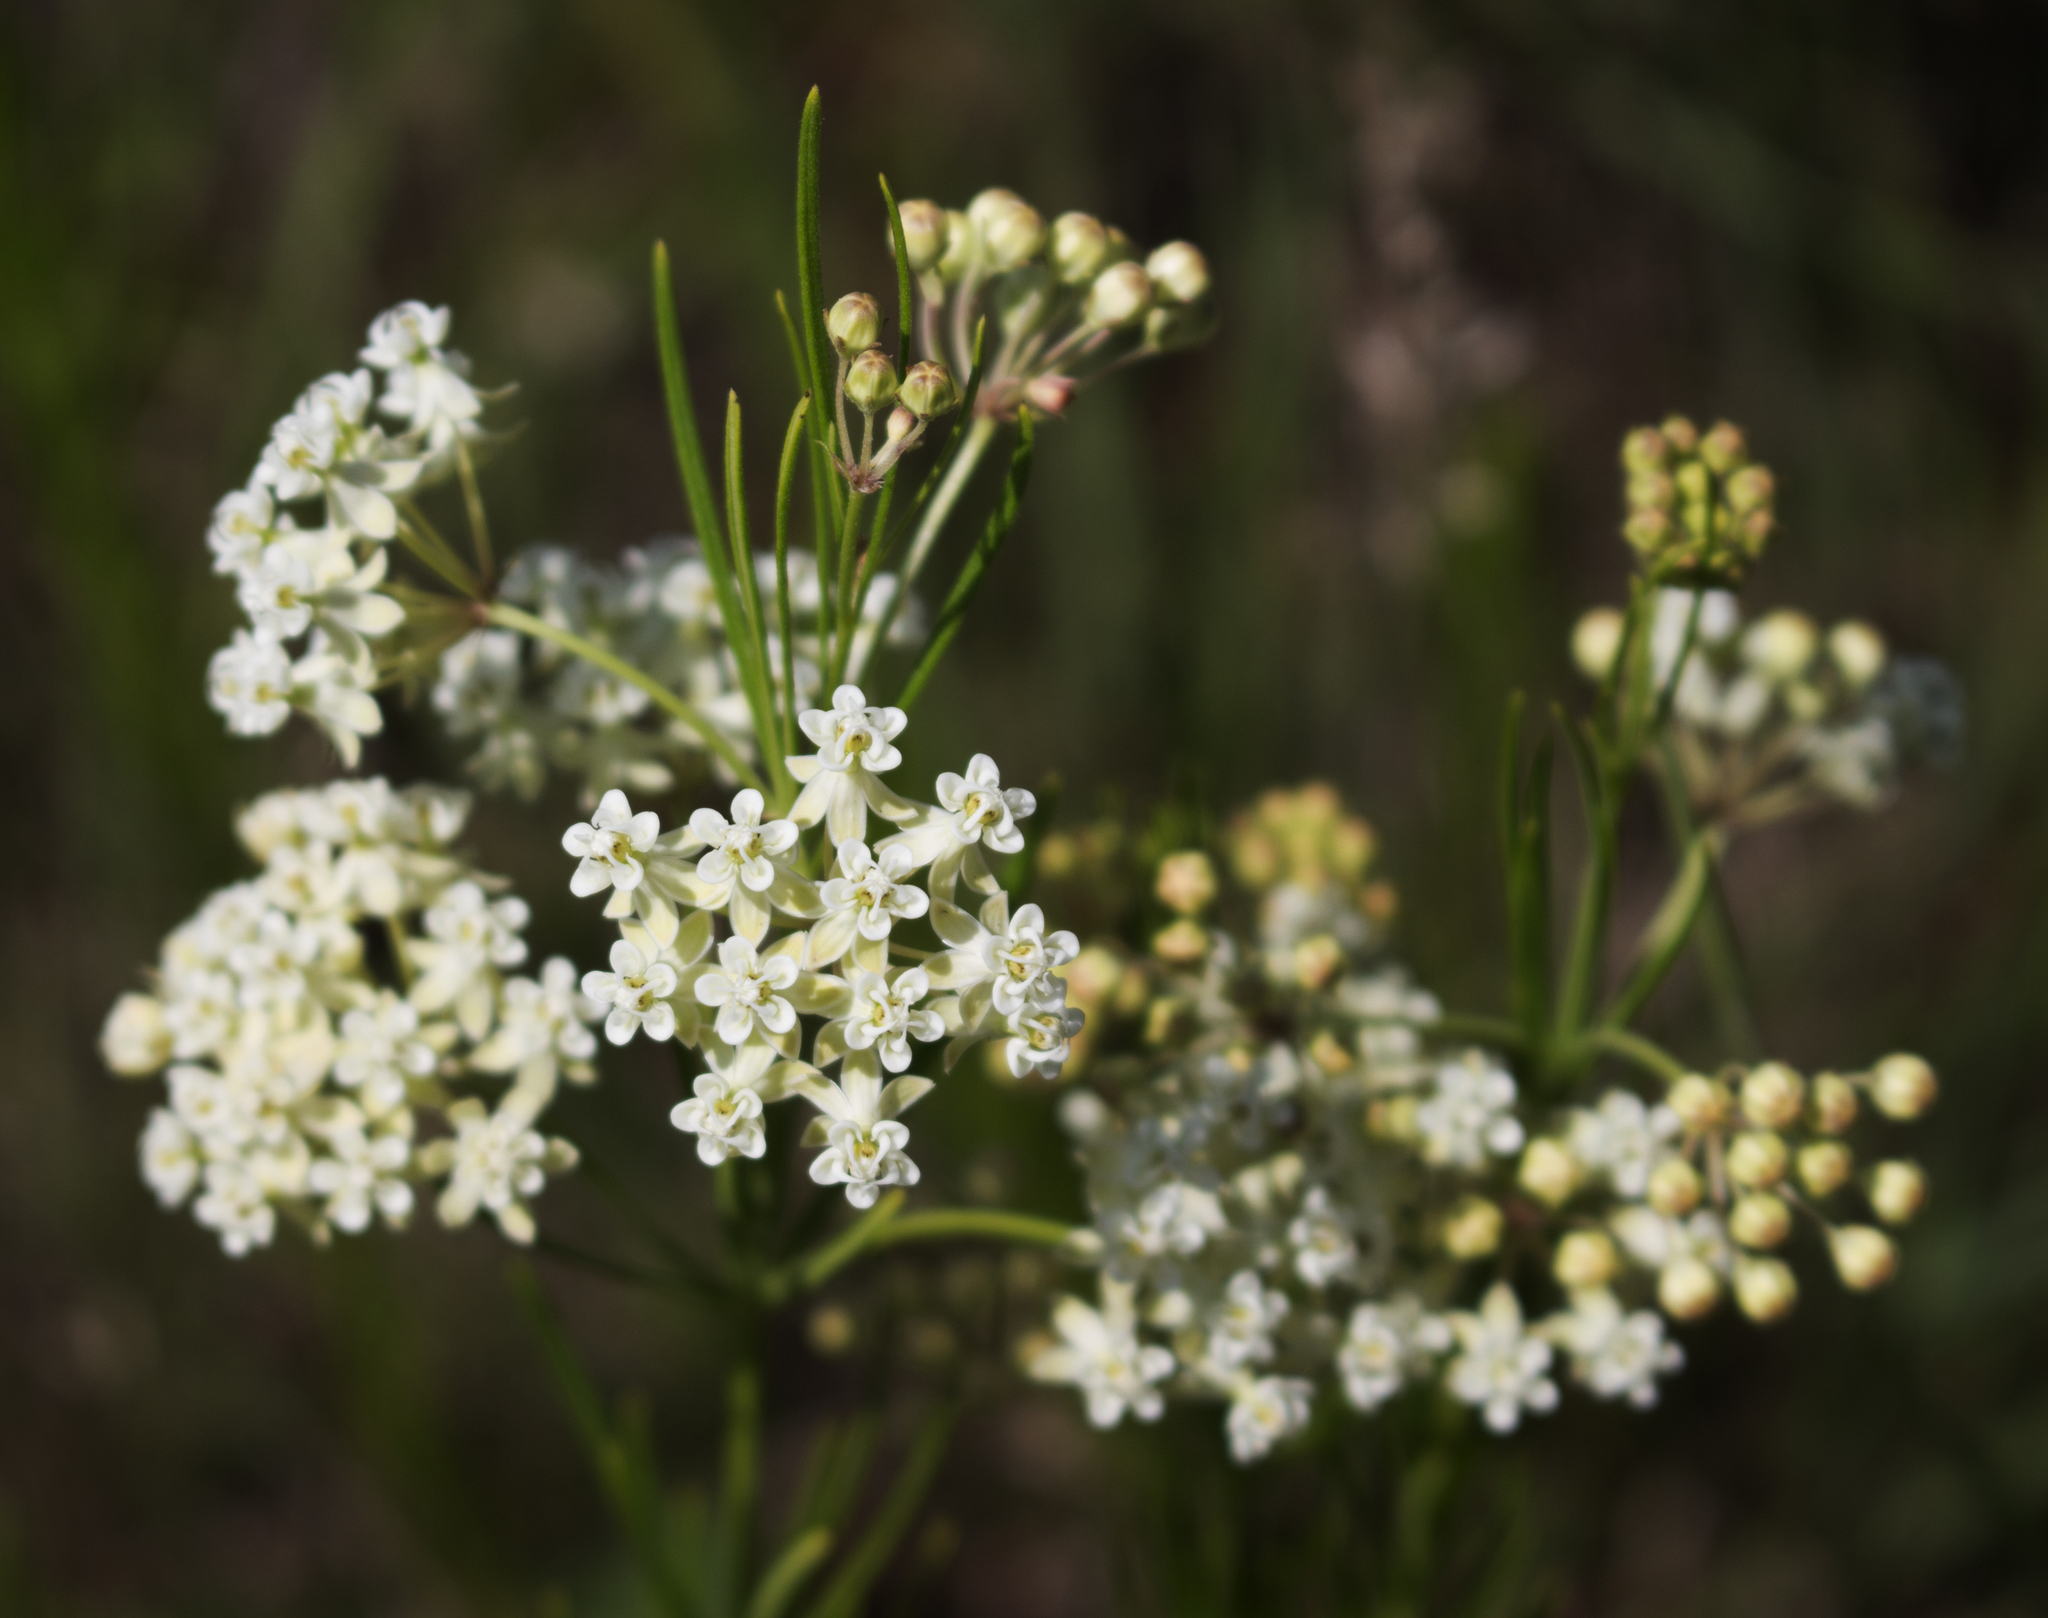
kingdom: Plantae
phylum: Tracheophyta
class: Magnoliopsida
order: Gentianales
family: Apocynaceae
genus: Asclepias
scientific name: Asclepias verticillata
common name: Eastern whorled milkweed
